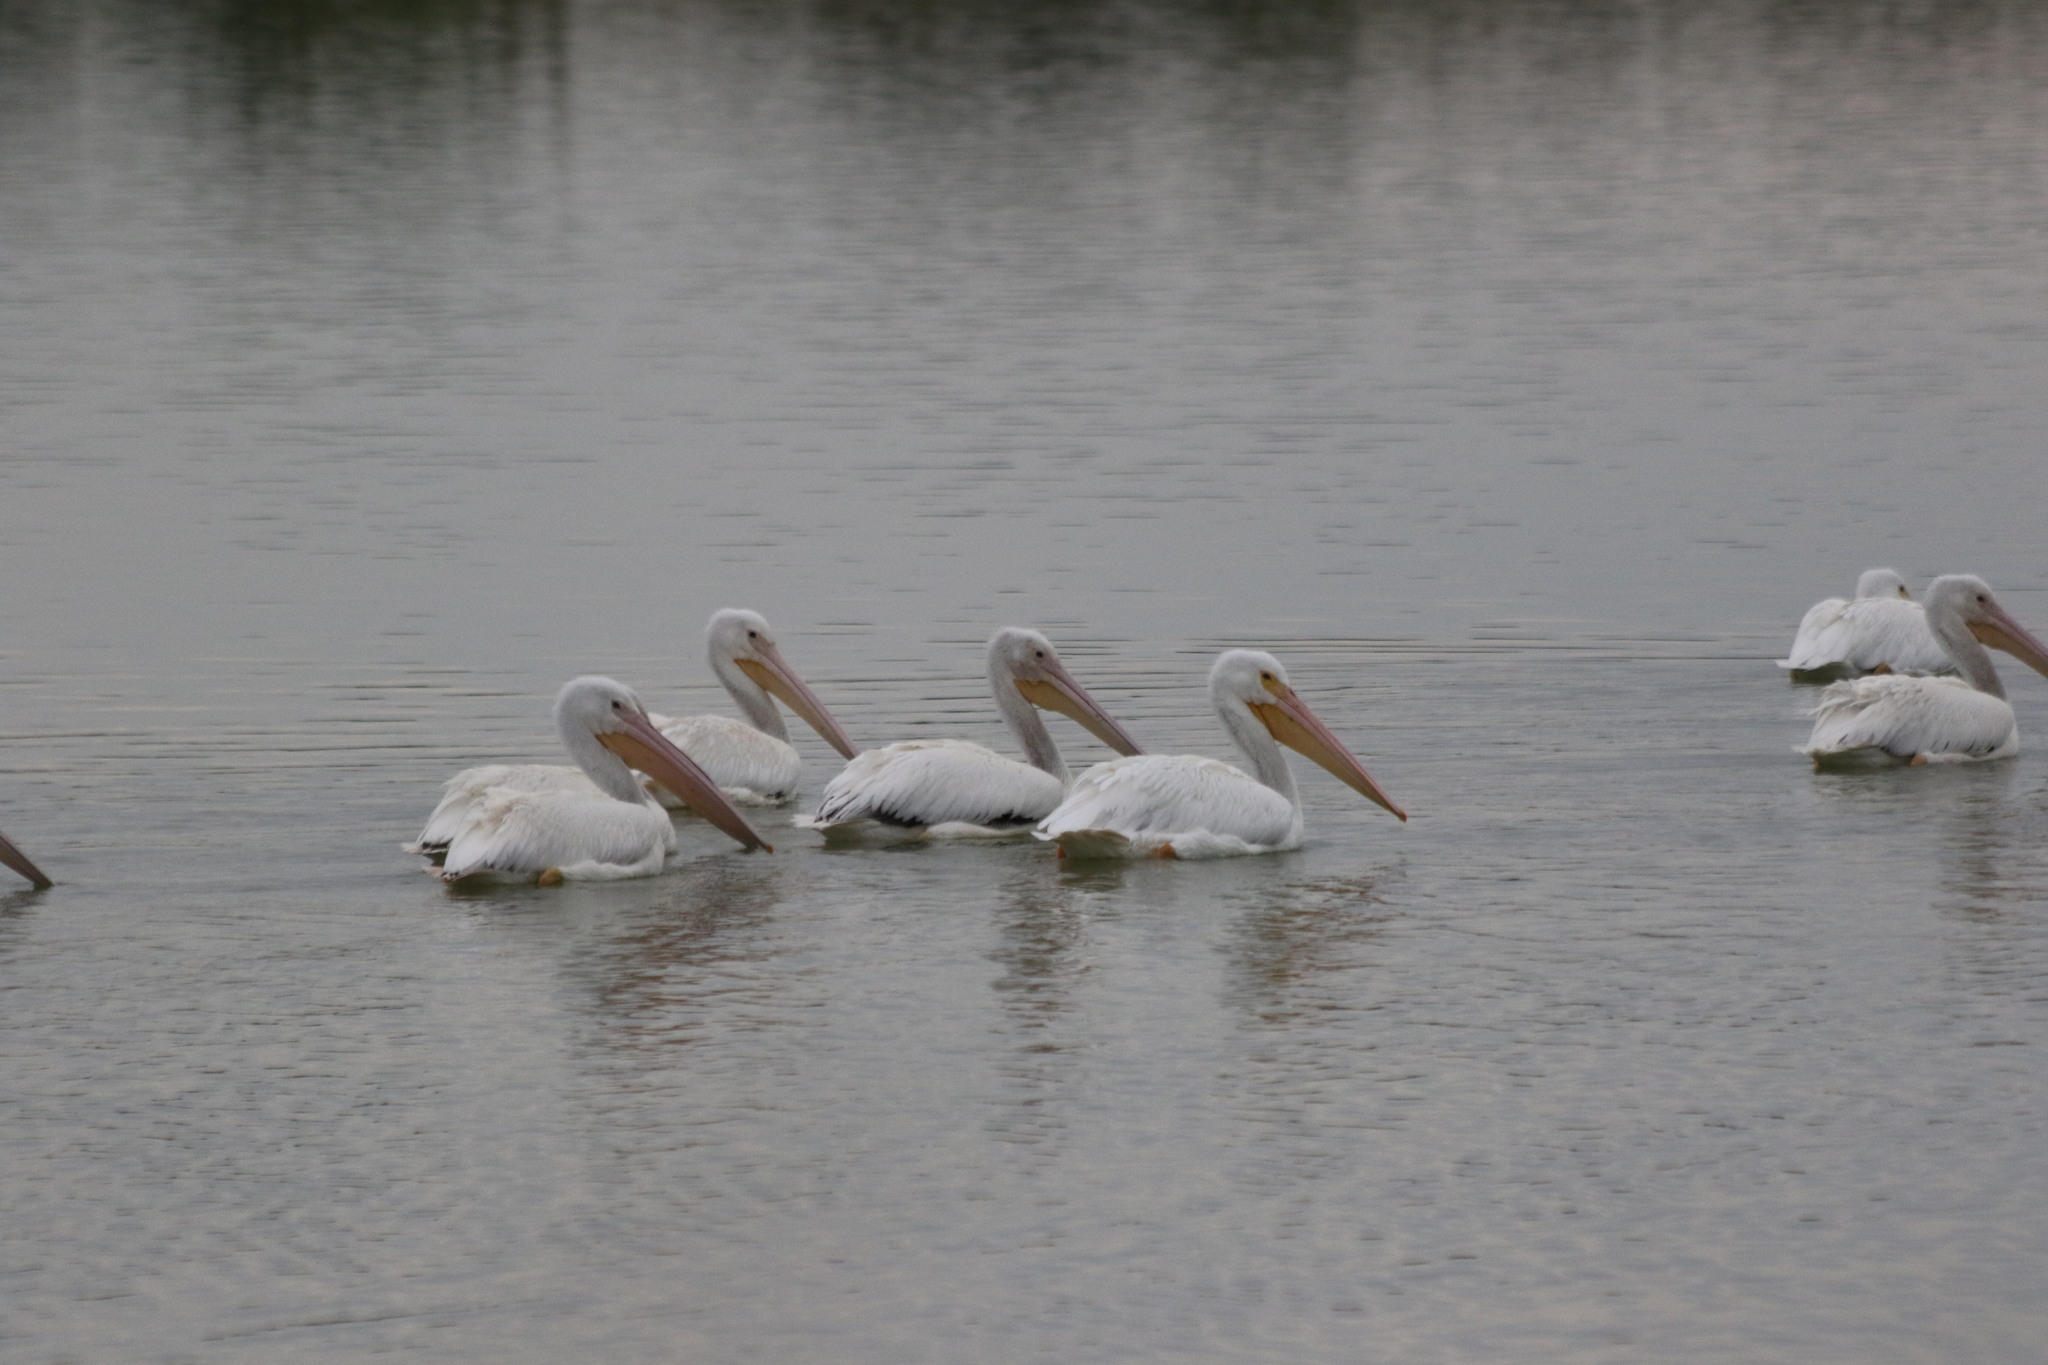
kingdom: Animalia
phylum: Chordata
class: Aves
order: Pelecaniformes
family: Pelecanidae
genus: Pelecanus
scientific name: Pelecanus erythrorhynchos
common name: American white pelican
